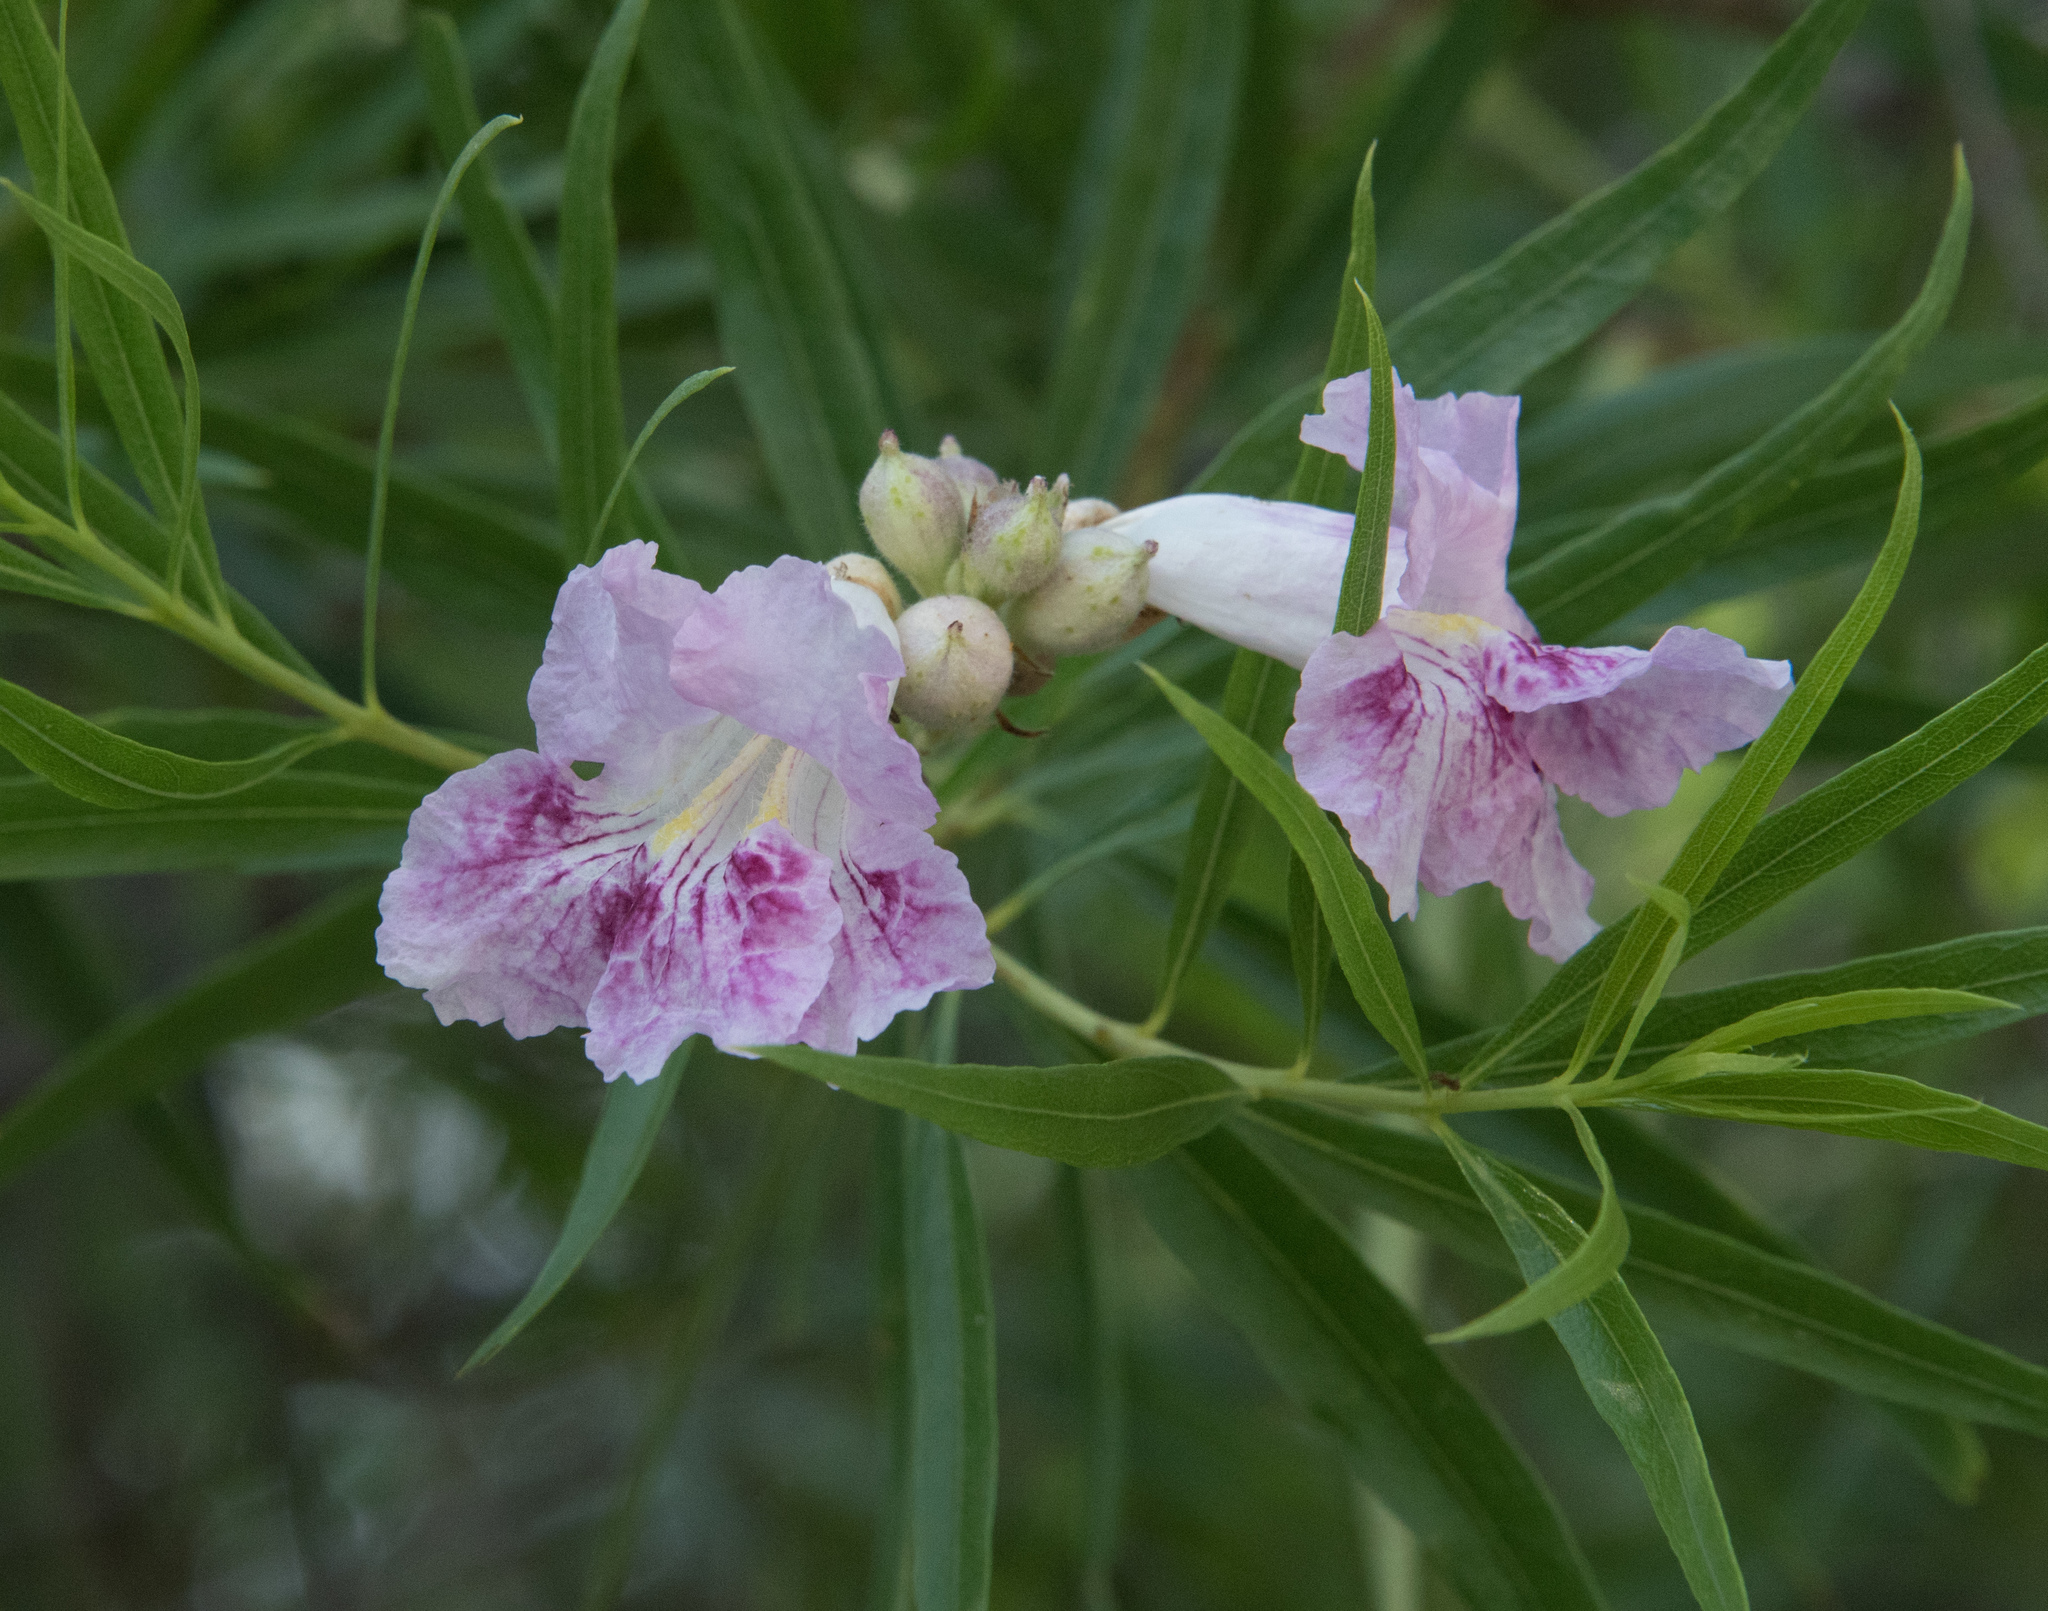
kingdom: Plantae
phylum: Tracheophyta
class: Magnoliopsida
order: Lamiales
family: Bignoniaceae
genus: Chilopsis
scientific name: Chilopsis linearis
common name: Desert-willow
